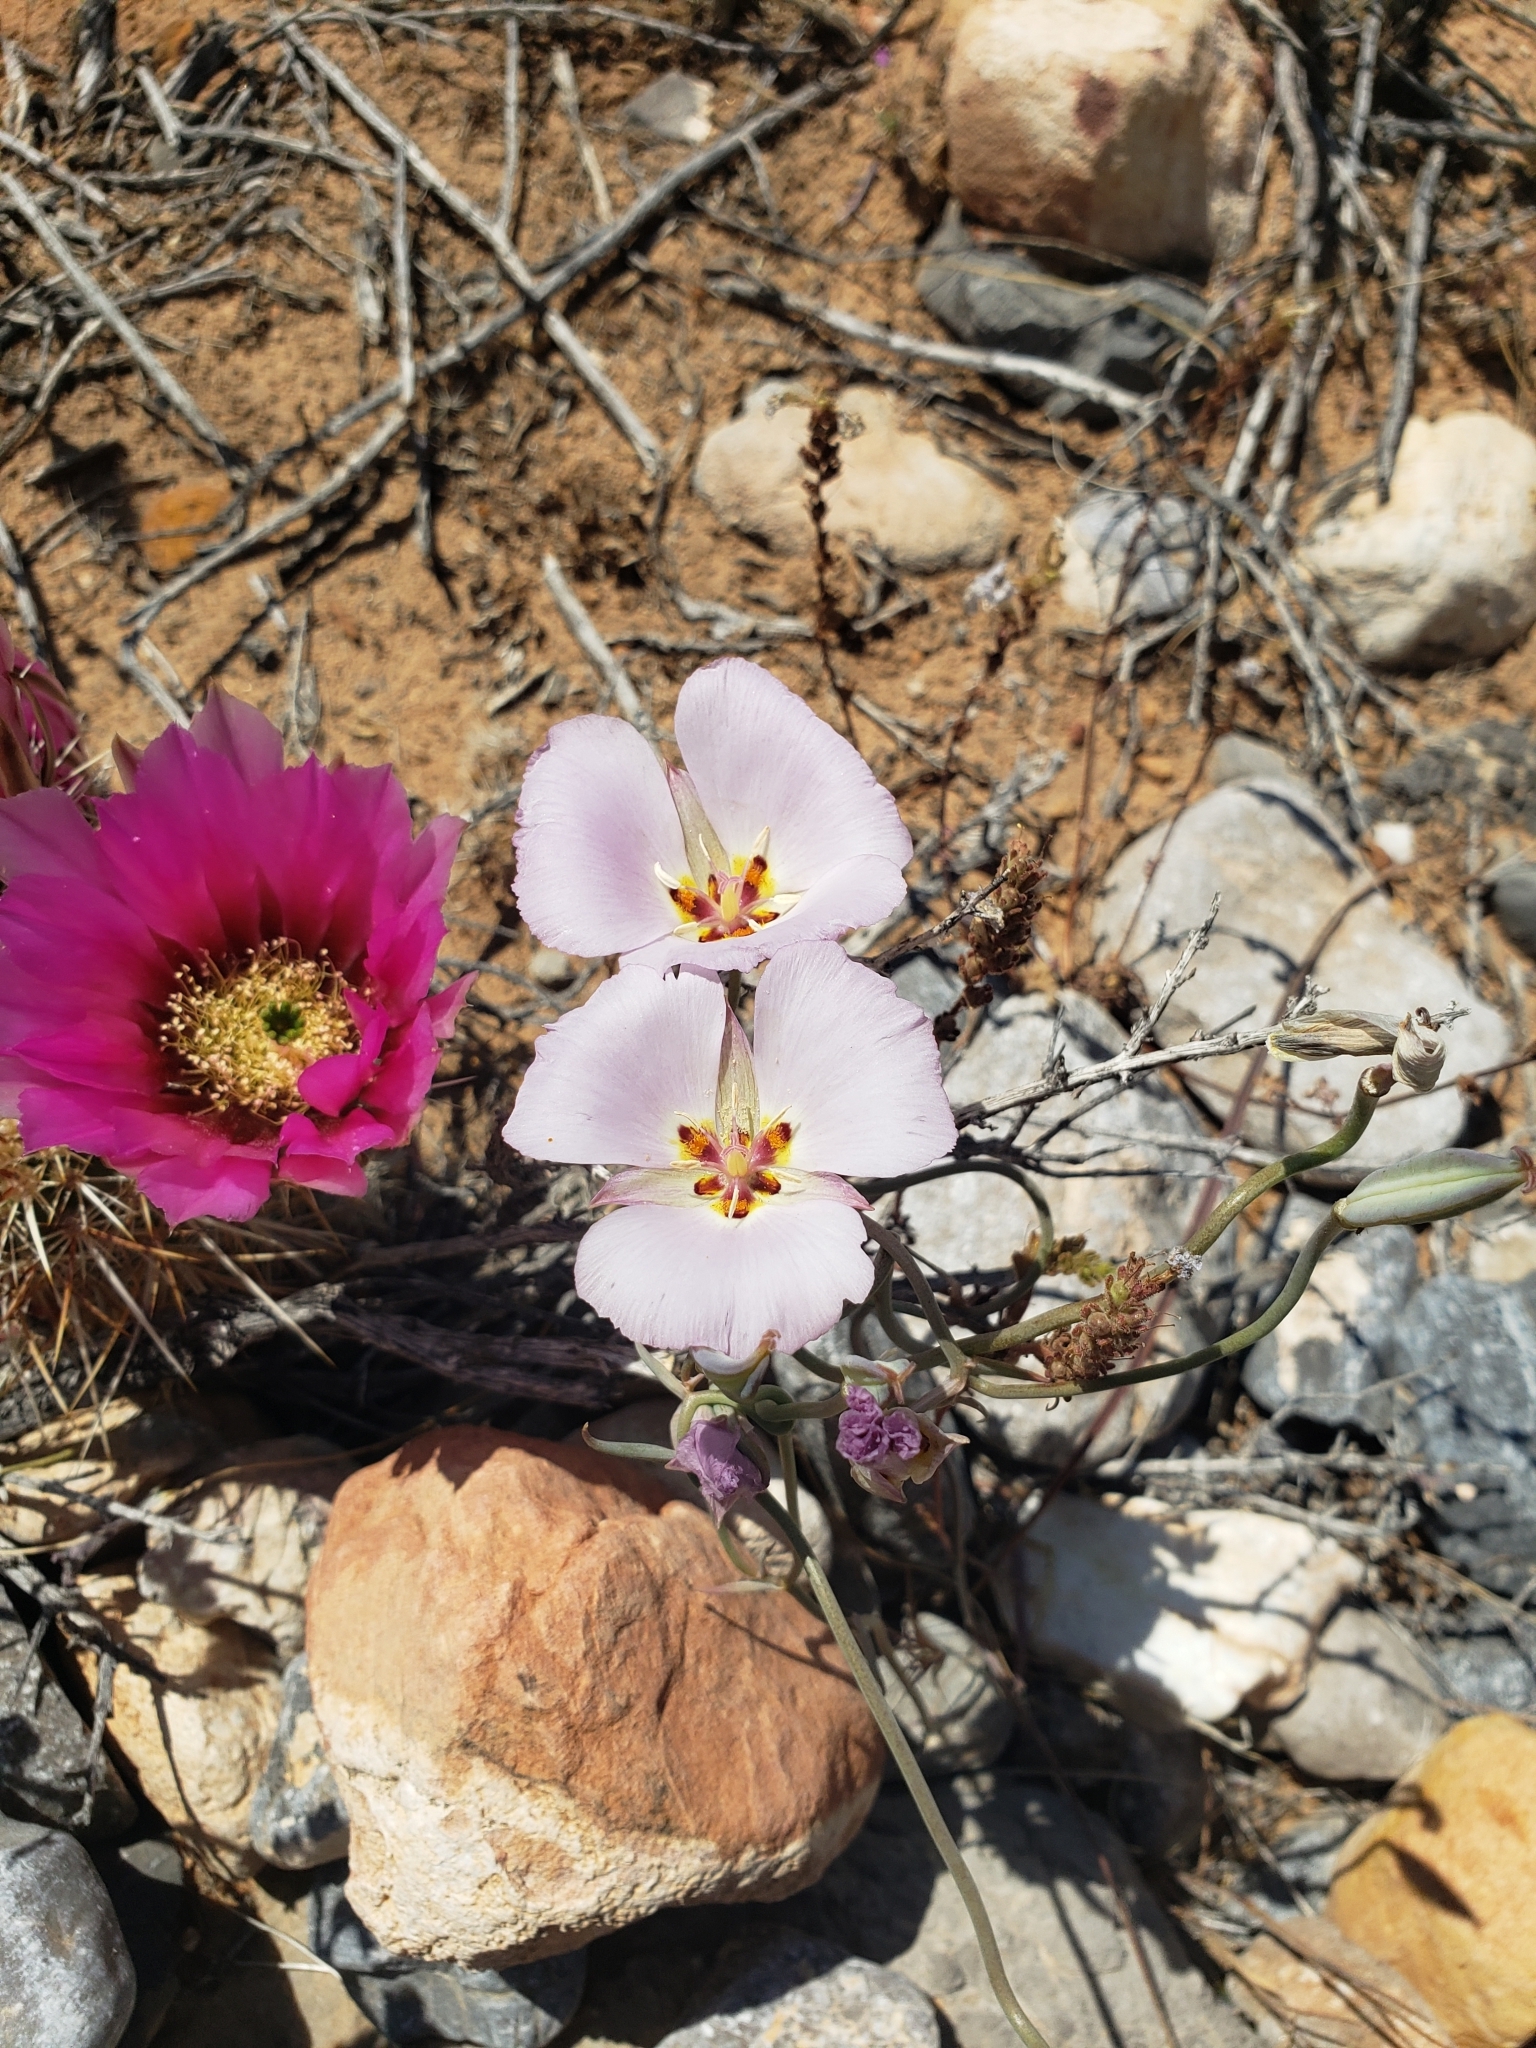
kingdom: Plantae
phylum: Tracheophyta
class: Liliopsida
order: Liliales
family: Liliaceae
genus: Calochortus
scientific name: Calochortus flexuosus
